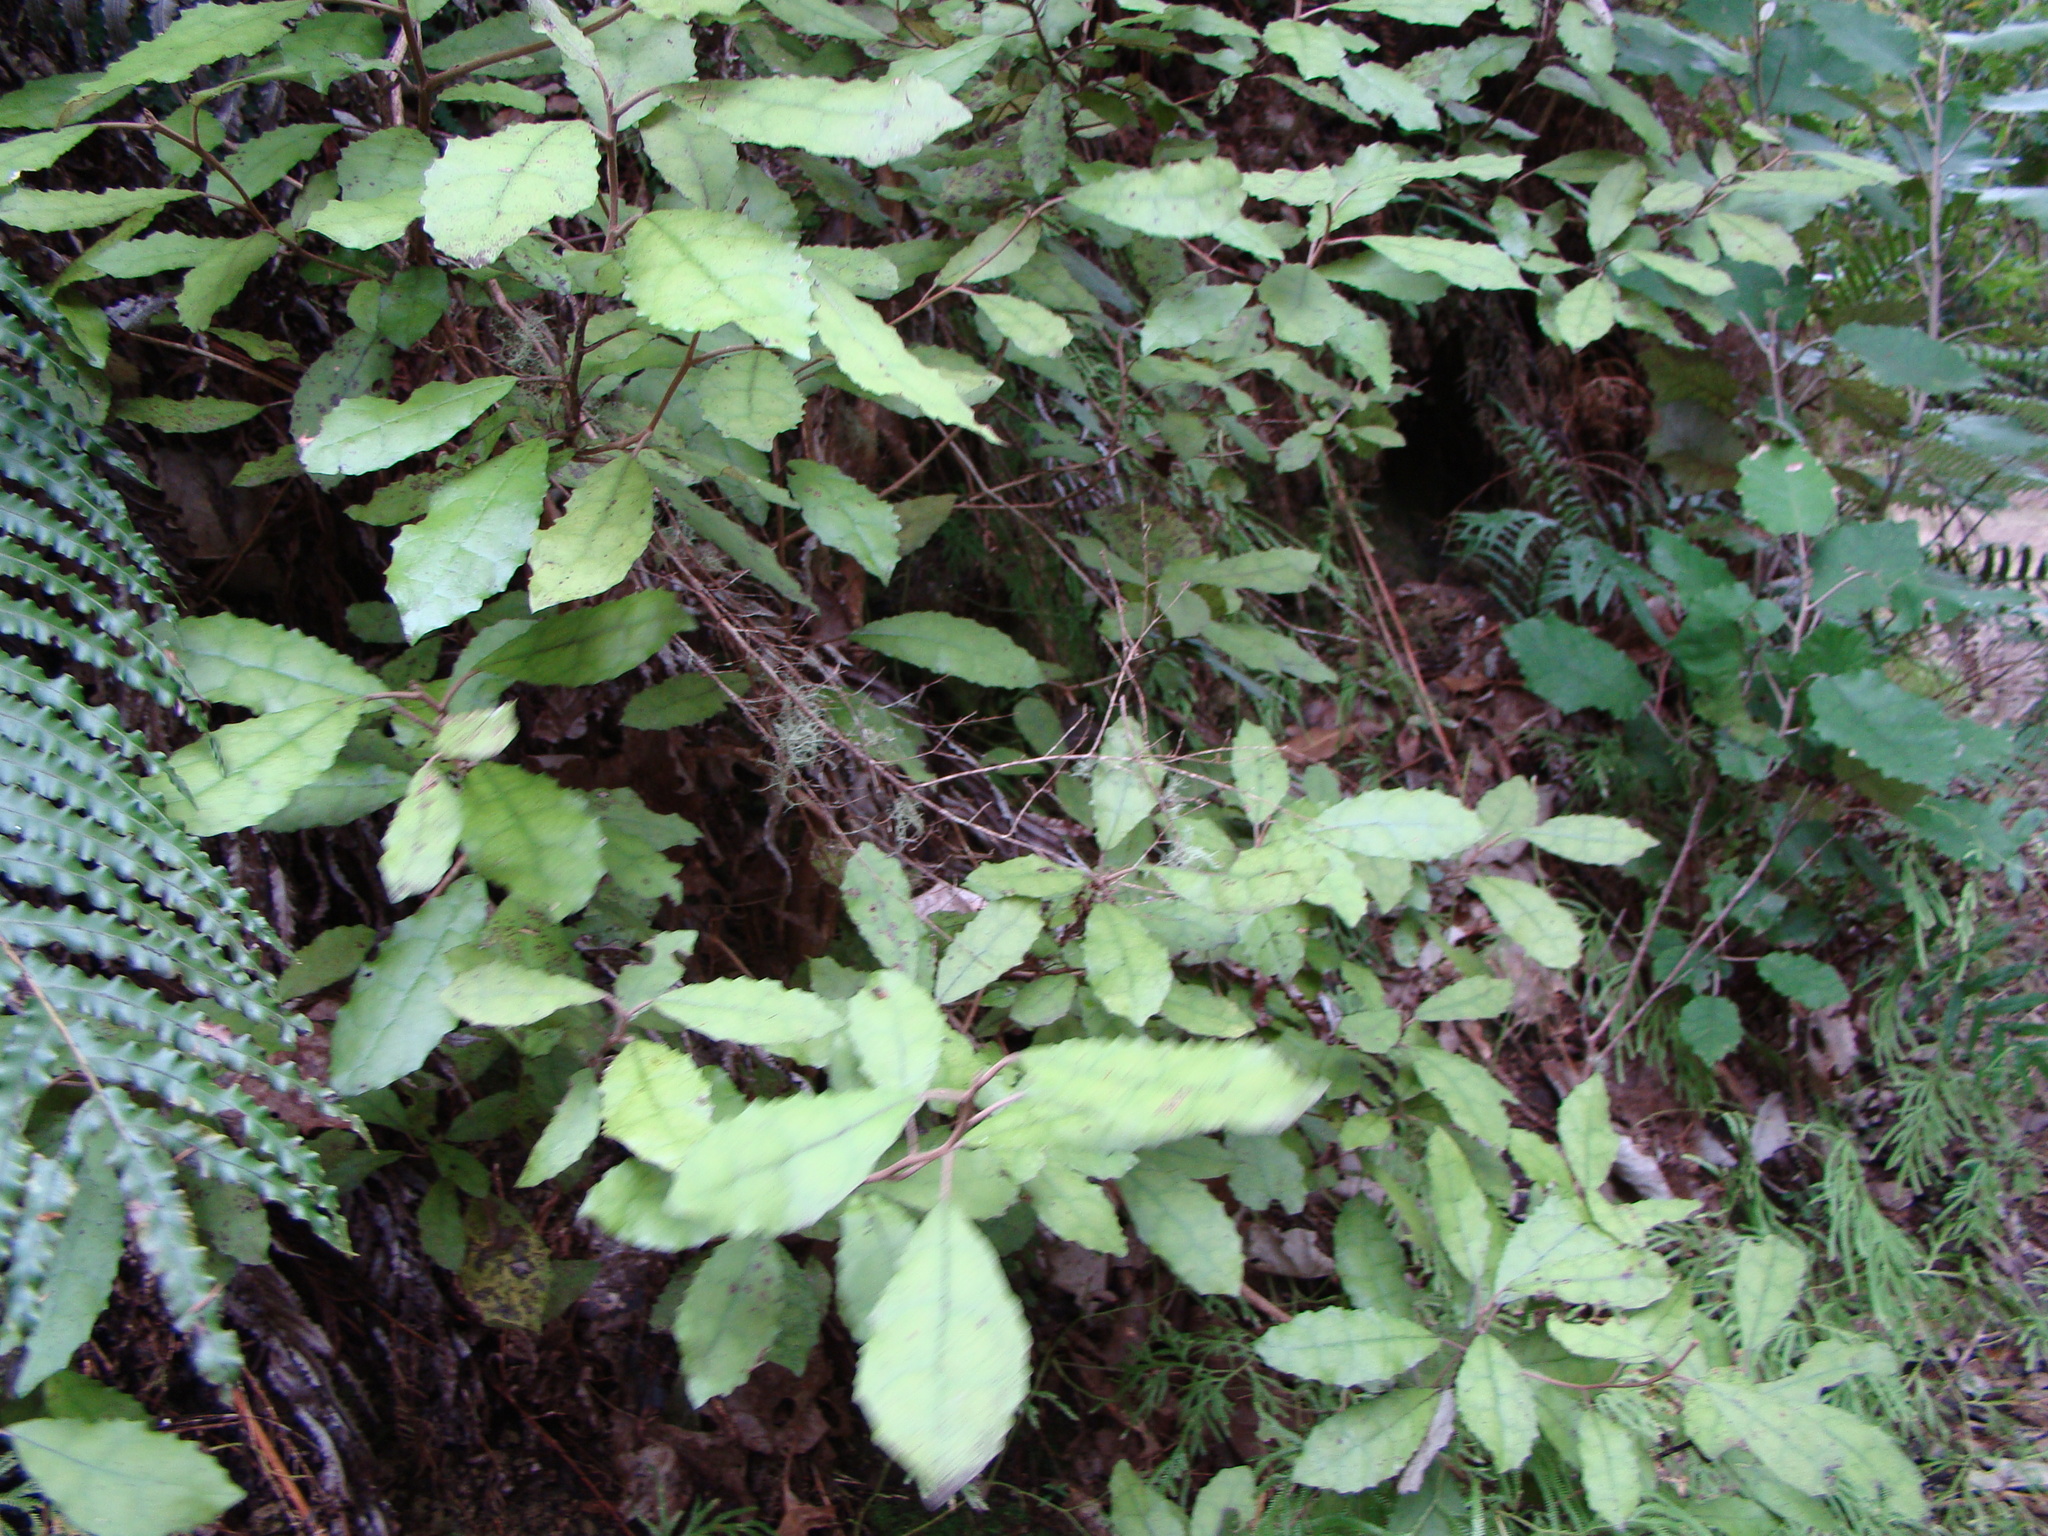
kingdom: Plantae
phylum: Tracheophyta
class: Magnoliopsida
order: Asterales
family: Asteraceae
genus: Olearia
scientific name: Olearia rani
